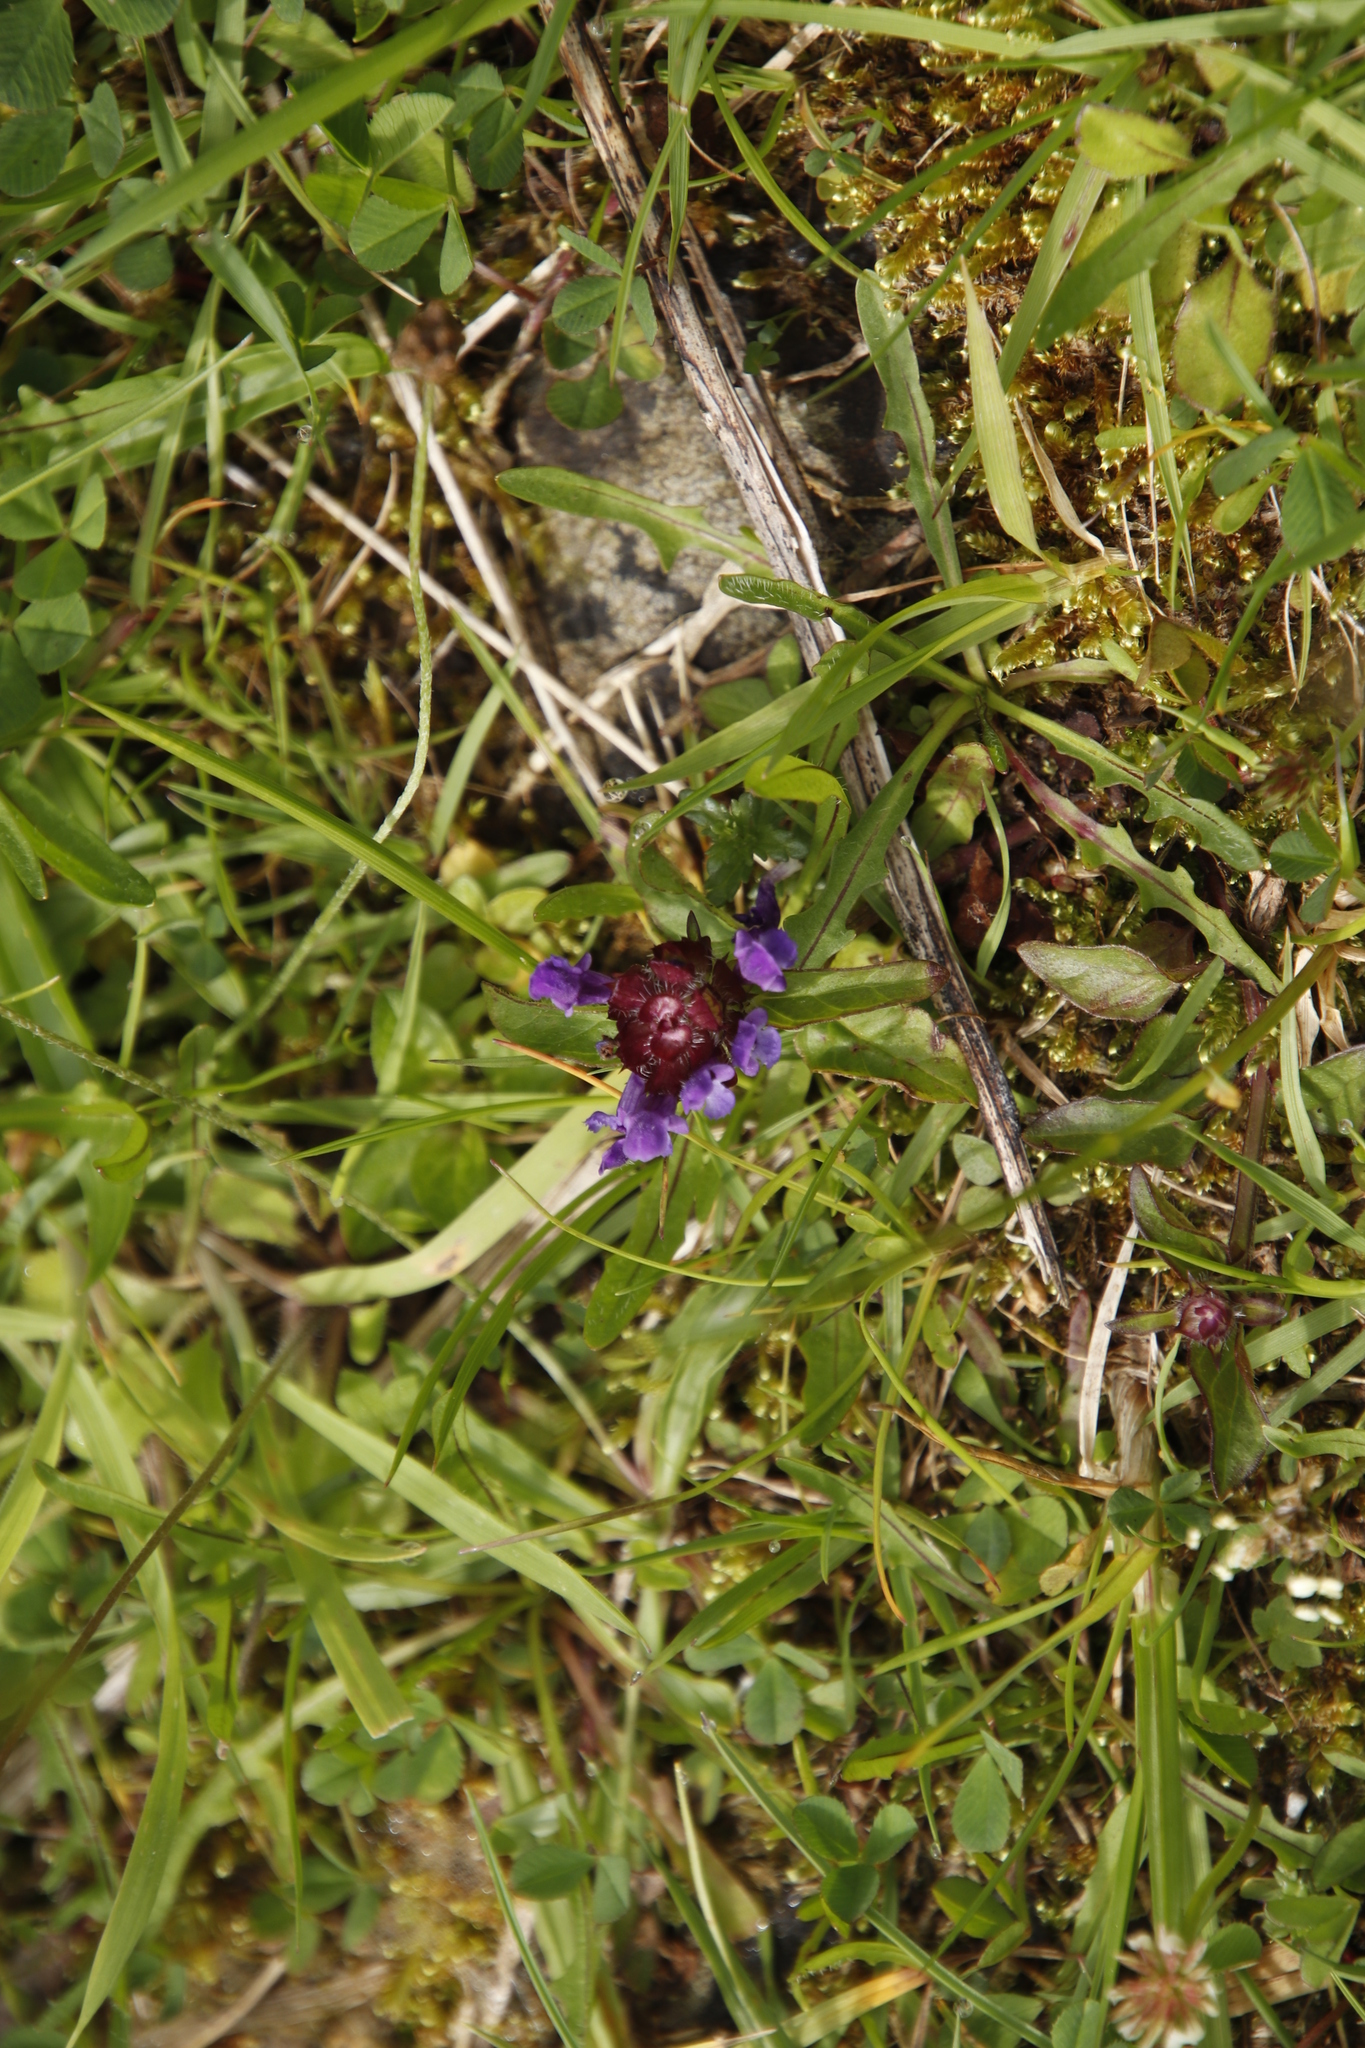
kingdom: Plantae
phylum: Tracheophyta
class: Magnoliopsida
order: Lamiales
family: Lamiaceae
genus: Prunella
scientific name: Prunella vulgaris
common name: Heal-all
